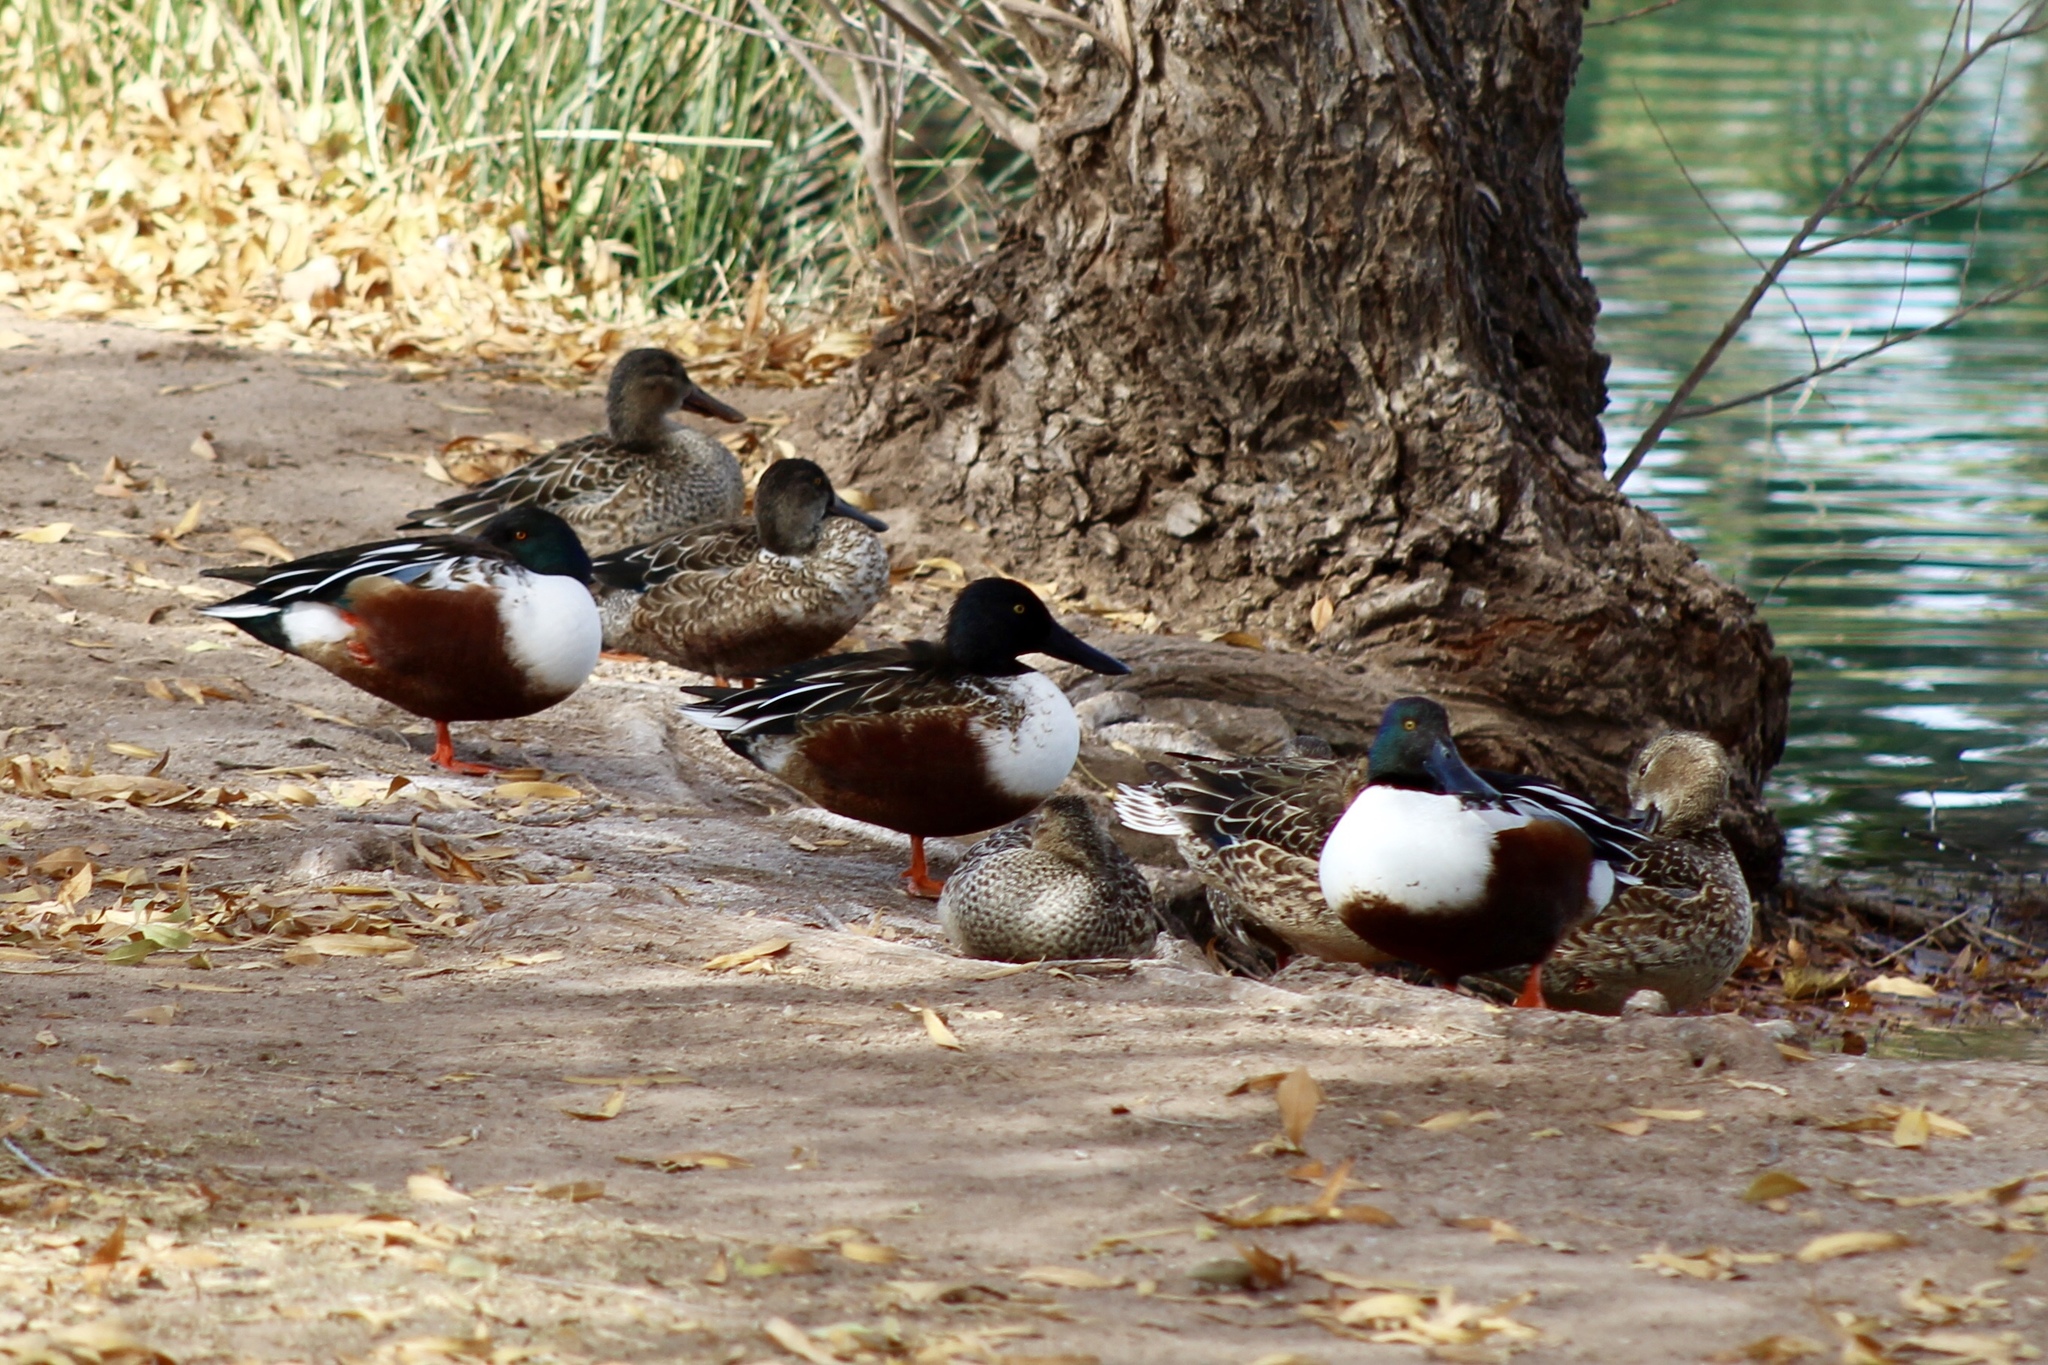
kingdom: Animalia
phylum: Chordata
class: Aves
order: Anseriformes
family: Anatidae
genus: Spatula
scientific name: Spatula clypeata
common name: Northern shoveler
